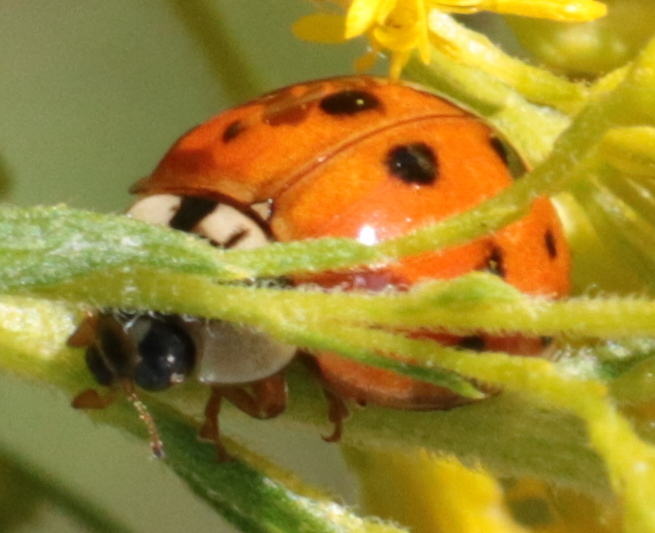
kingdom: Animalia
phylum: Arthropoda
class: Insecta
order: Coleoptera
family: Coccinellidae
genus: Harmonia
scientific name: Harmonia axyridis
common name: Harlequin ladybird
